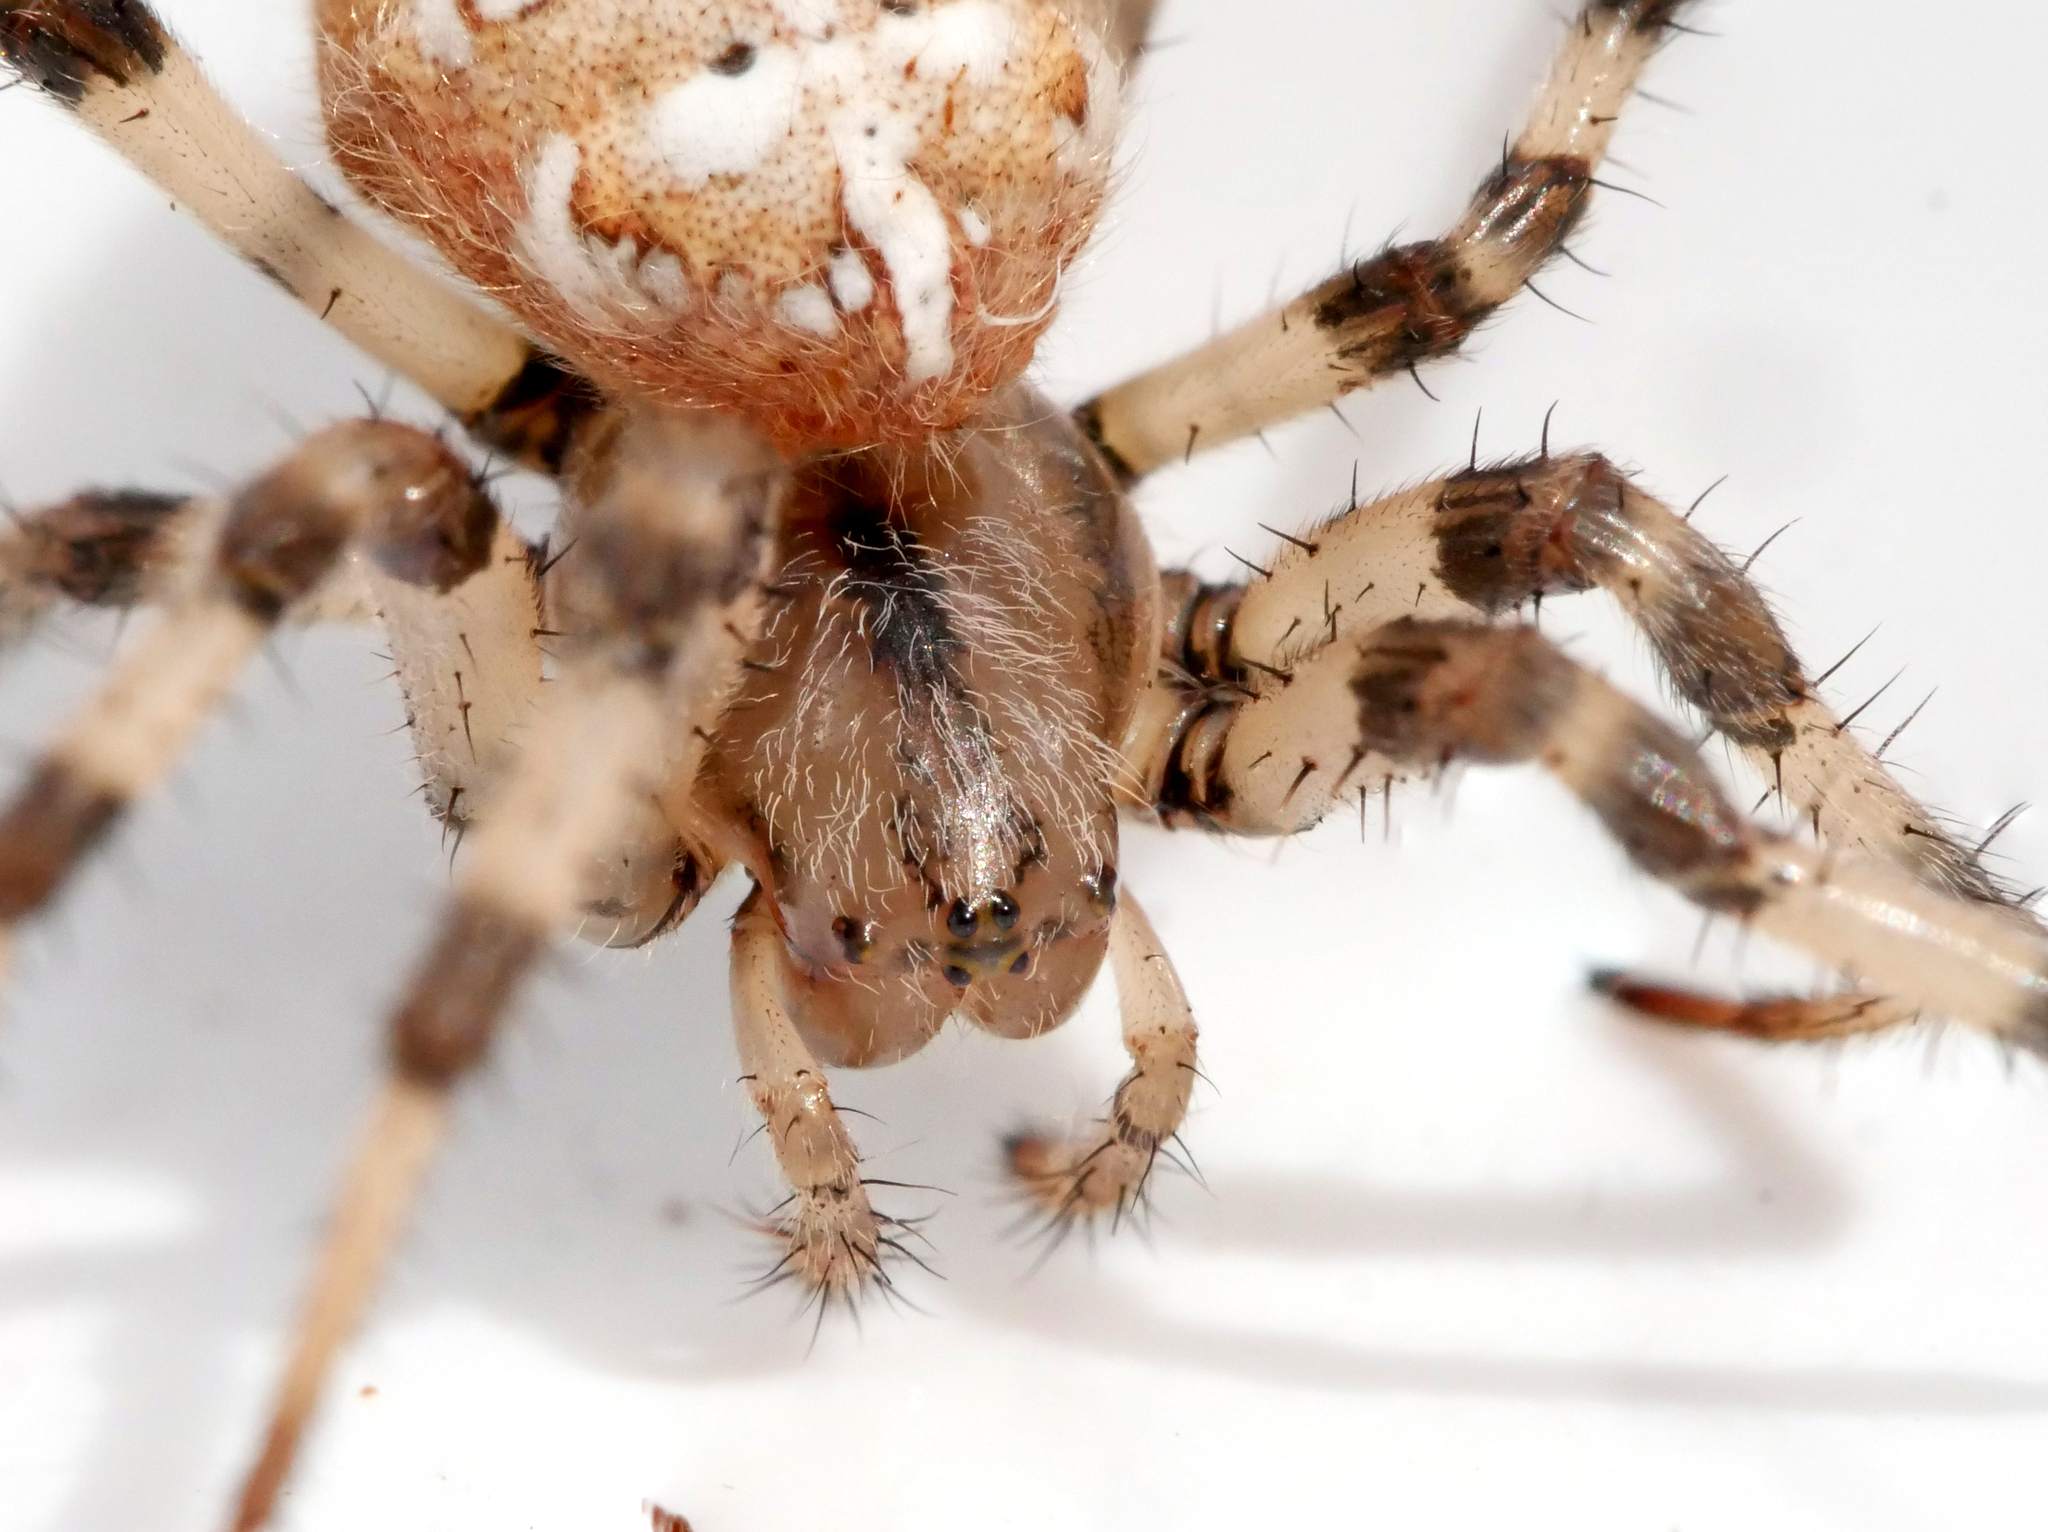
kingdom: Animalia
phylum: Arthropoda
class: Arachnida
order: Araneae
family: Araneidae
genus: Araneus
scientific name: Araneus quadratus
